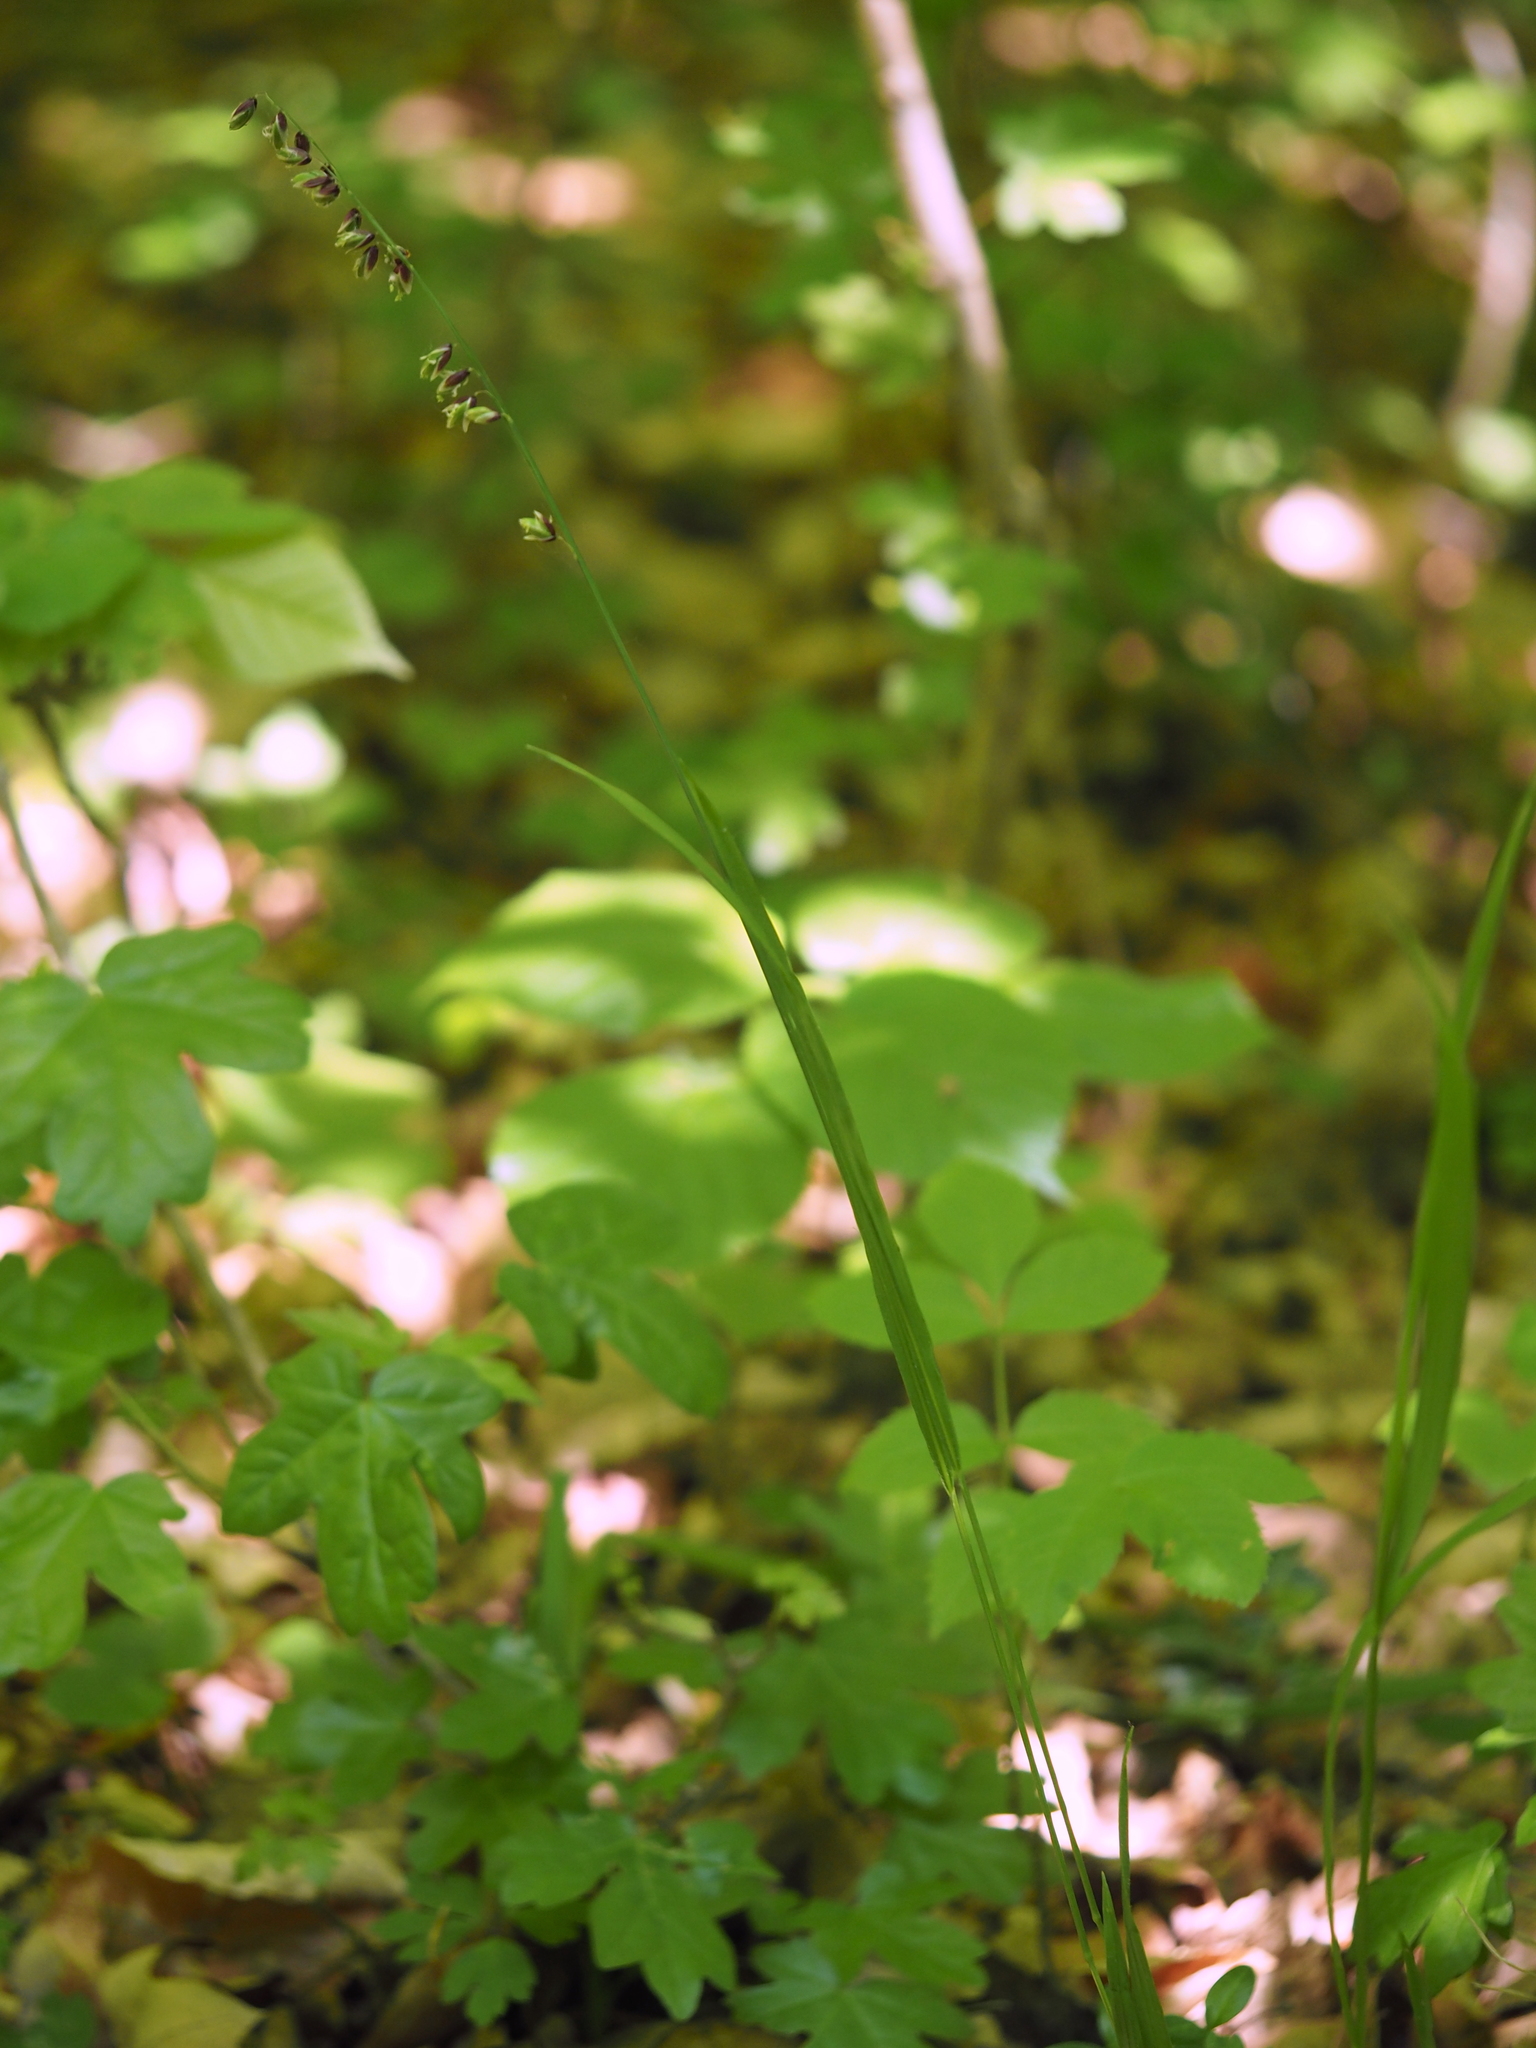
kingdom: Plantae
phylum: Tracheophyta
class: Liliopsida
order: Poales
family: Poaceae
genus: Melica
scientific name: Melica nutans
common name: Mountain melick
